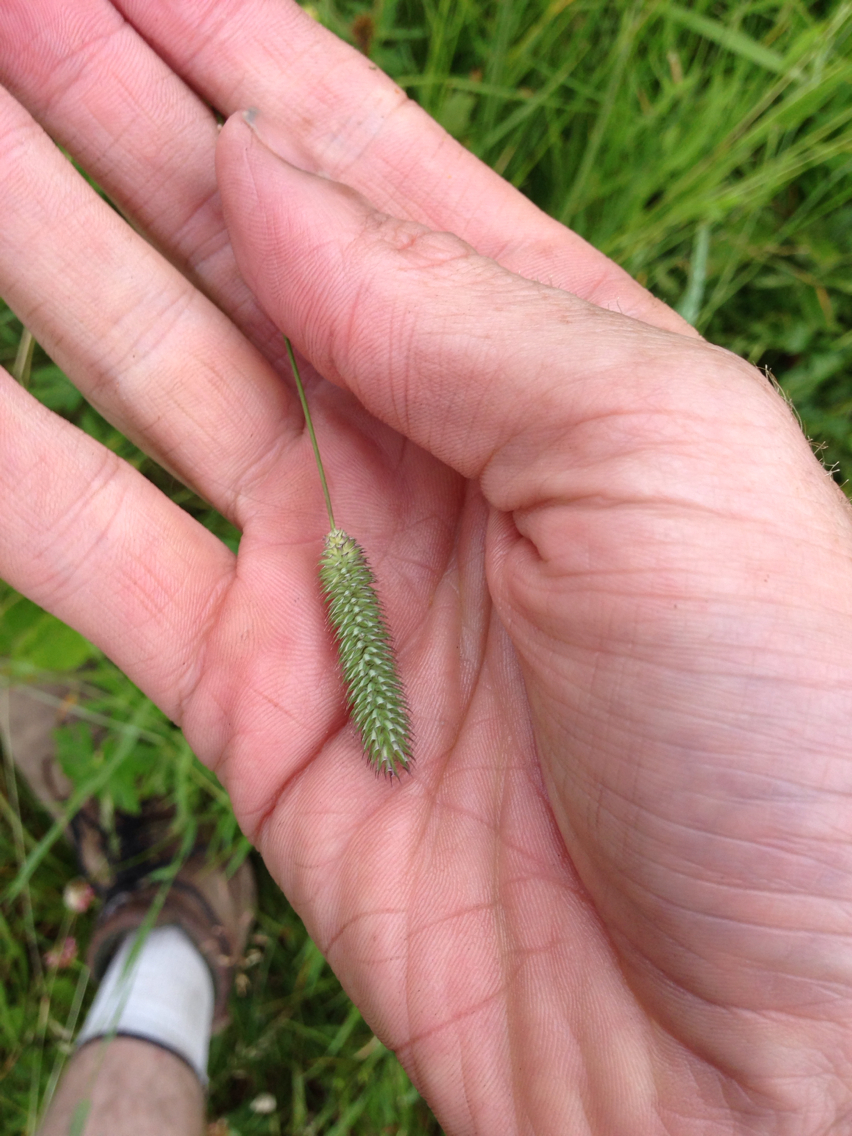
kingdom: Plantae
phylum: Tracheophyta
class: Liliopsida
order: Poales
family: Poaceae
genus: Phleum
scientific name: Phleum pratense
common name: Timothy grass
